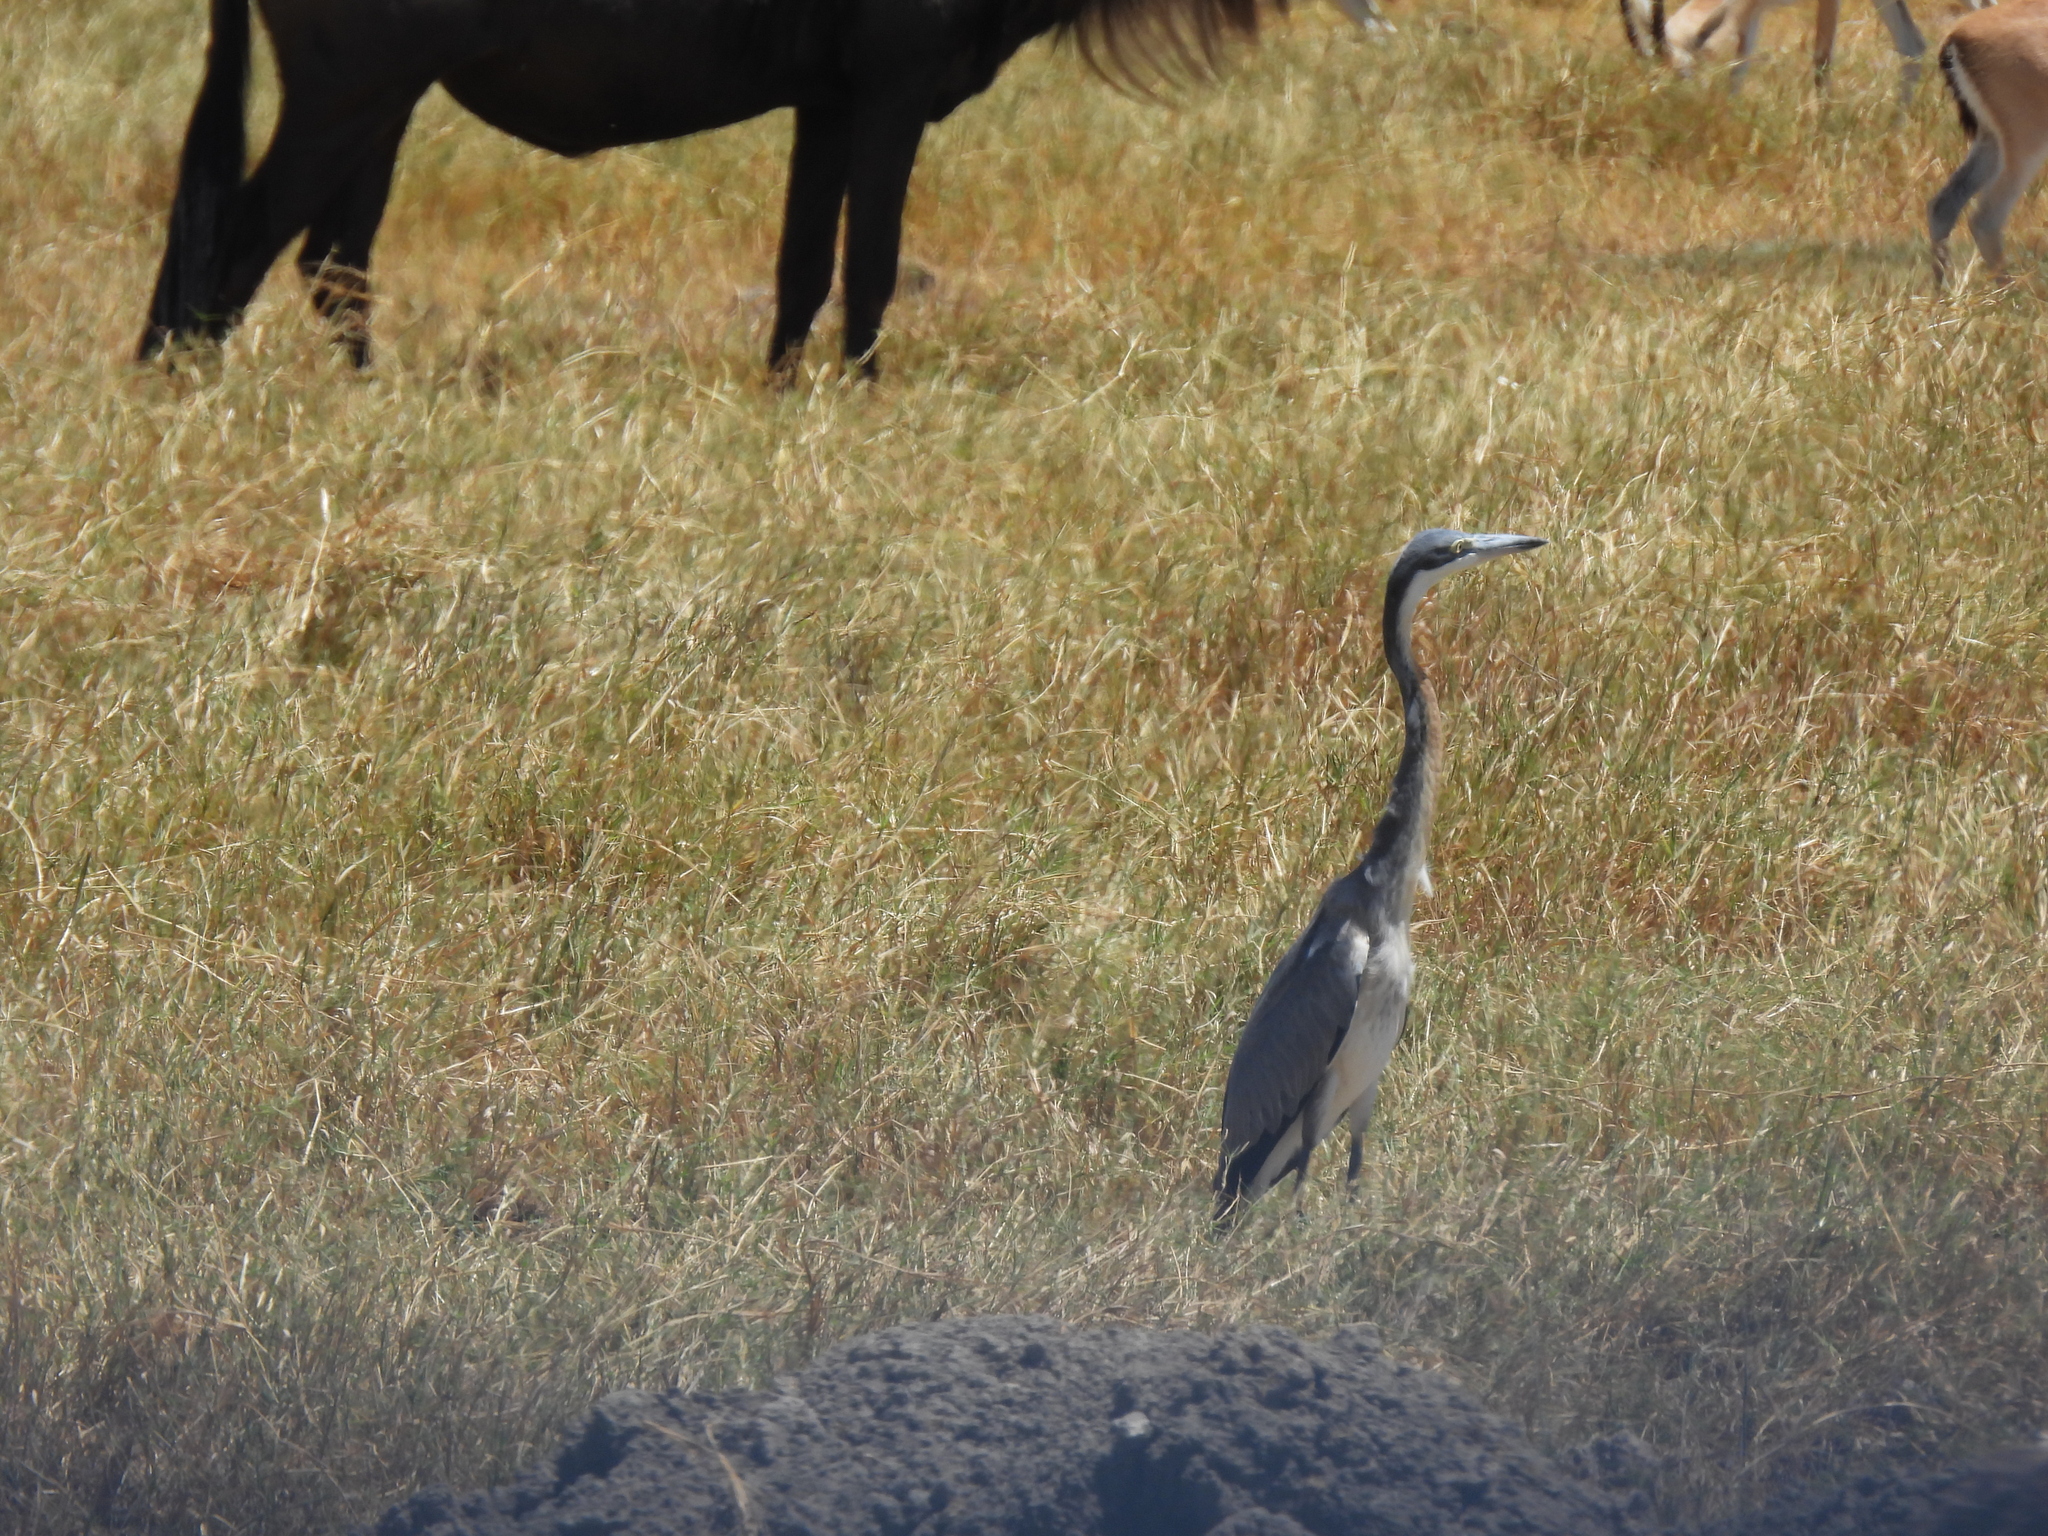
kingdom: Animalia
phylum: Chordata
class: Aves
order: Pelecaniformes
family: Ardeidae
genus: Ardea
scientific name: Ardea melanocephala
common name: Black-headed heron
